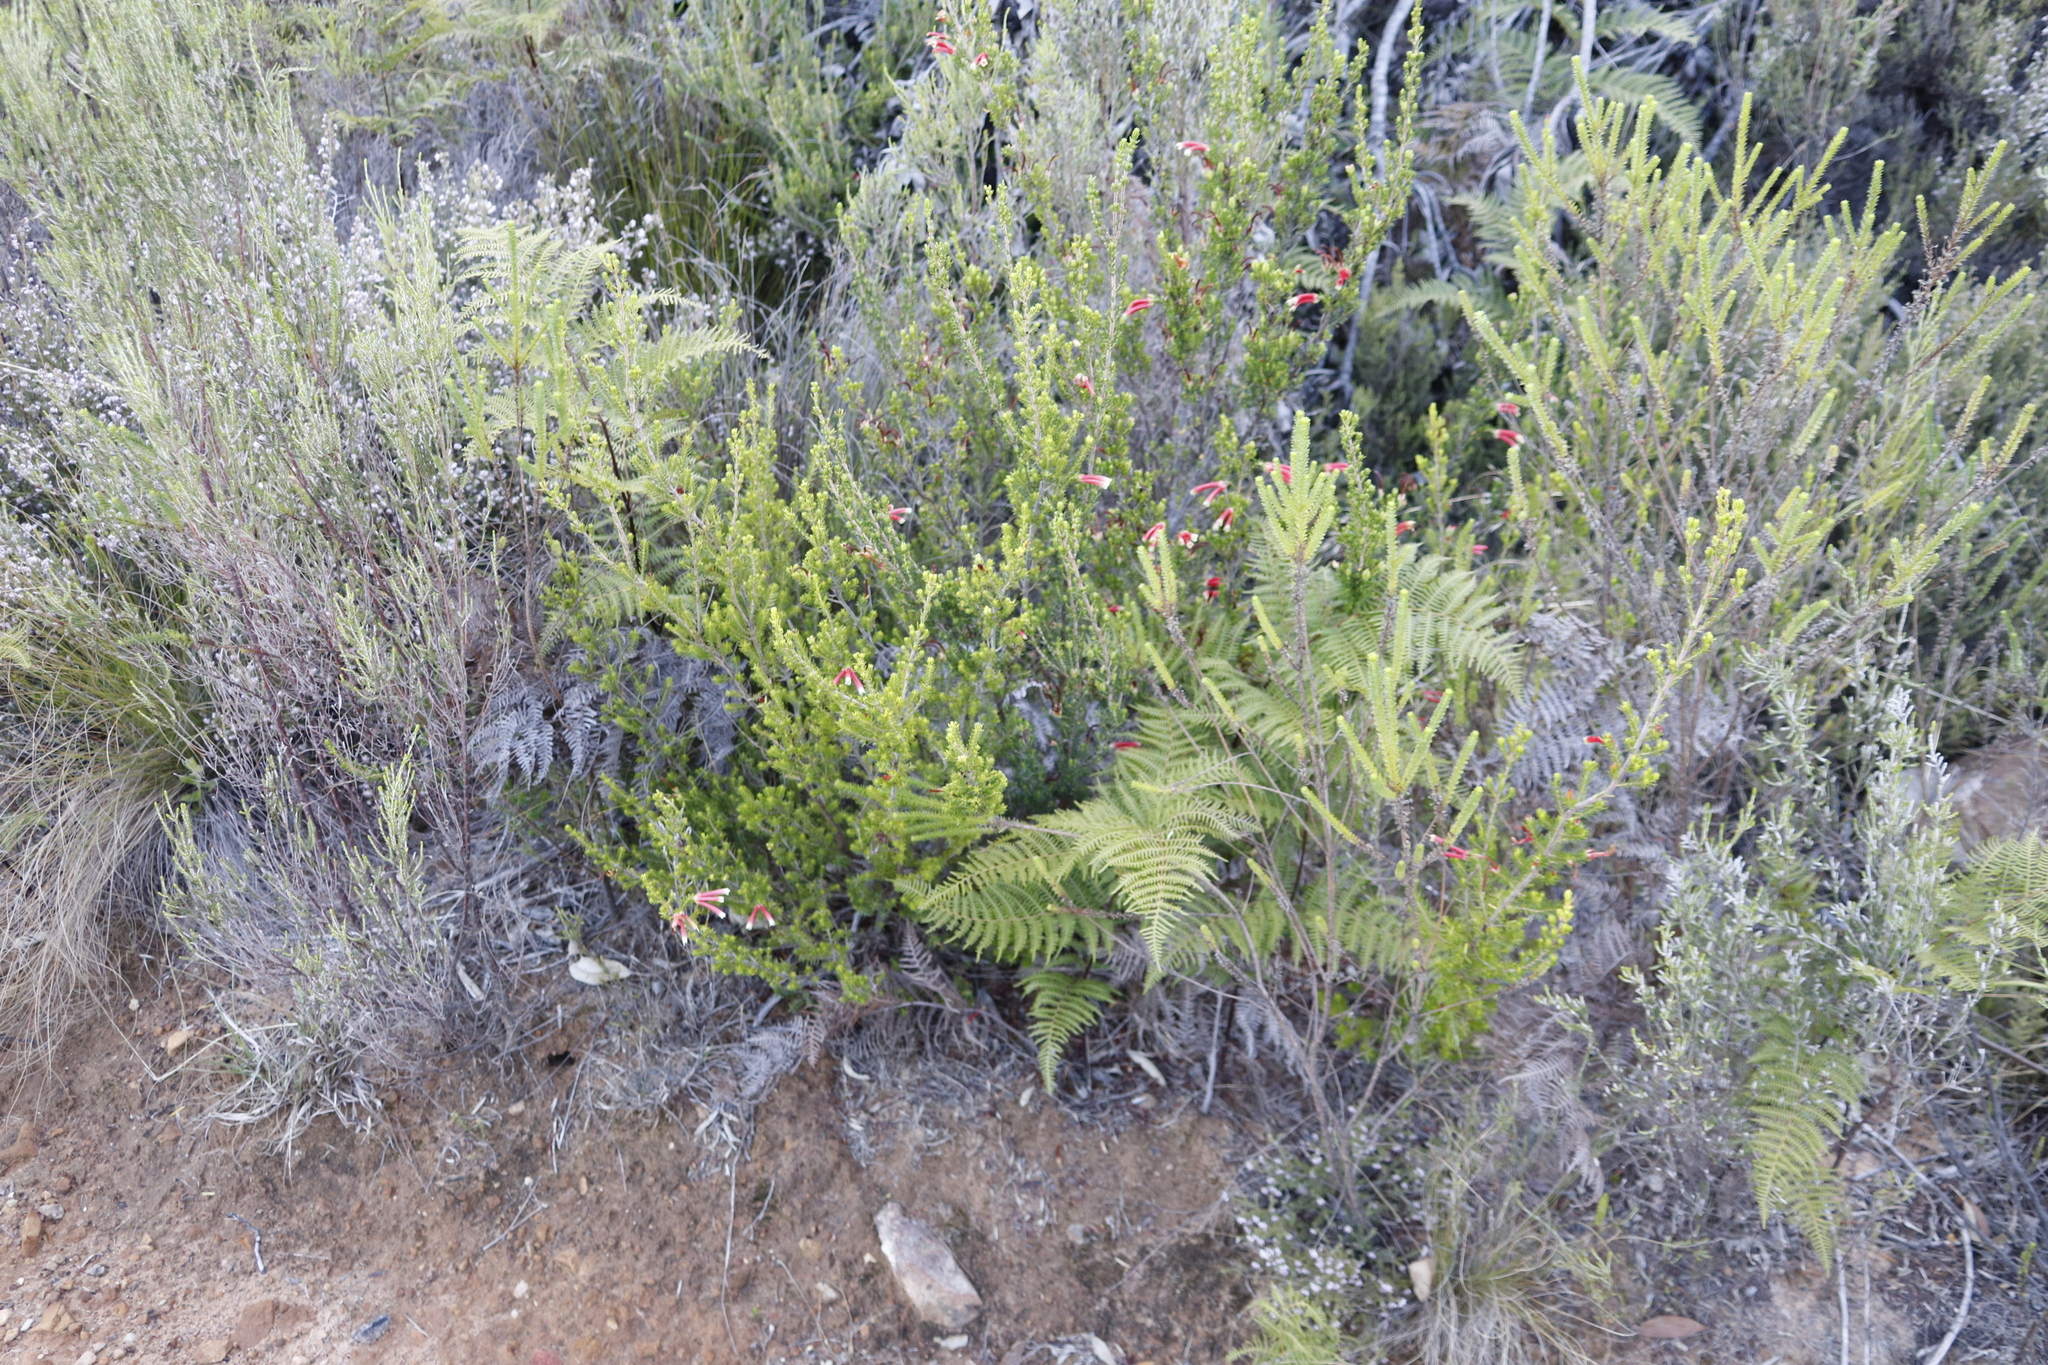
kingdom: Plantae
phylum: Tracheophyta
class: Polypodiopsida
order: Polypodiales
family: Dennstaedtiaceae
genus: Pteridium
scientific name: Pteridium aquilinum
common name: Bracken
